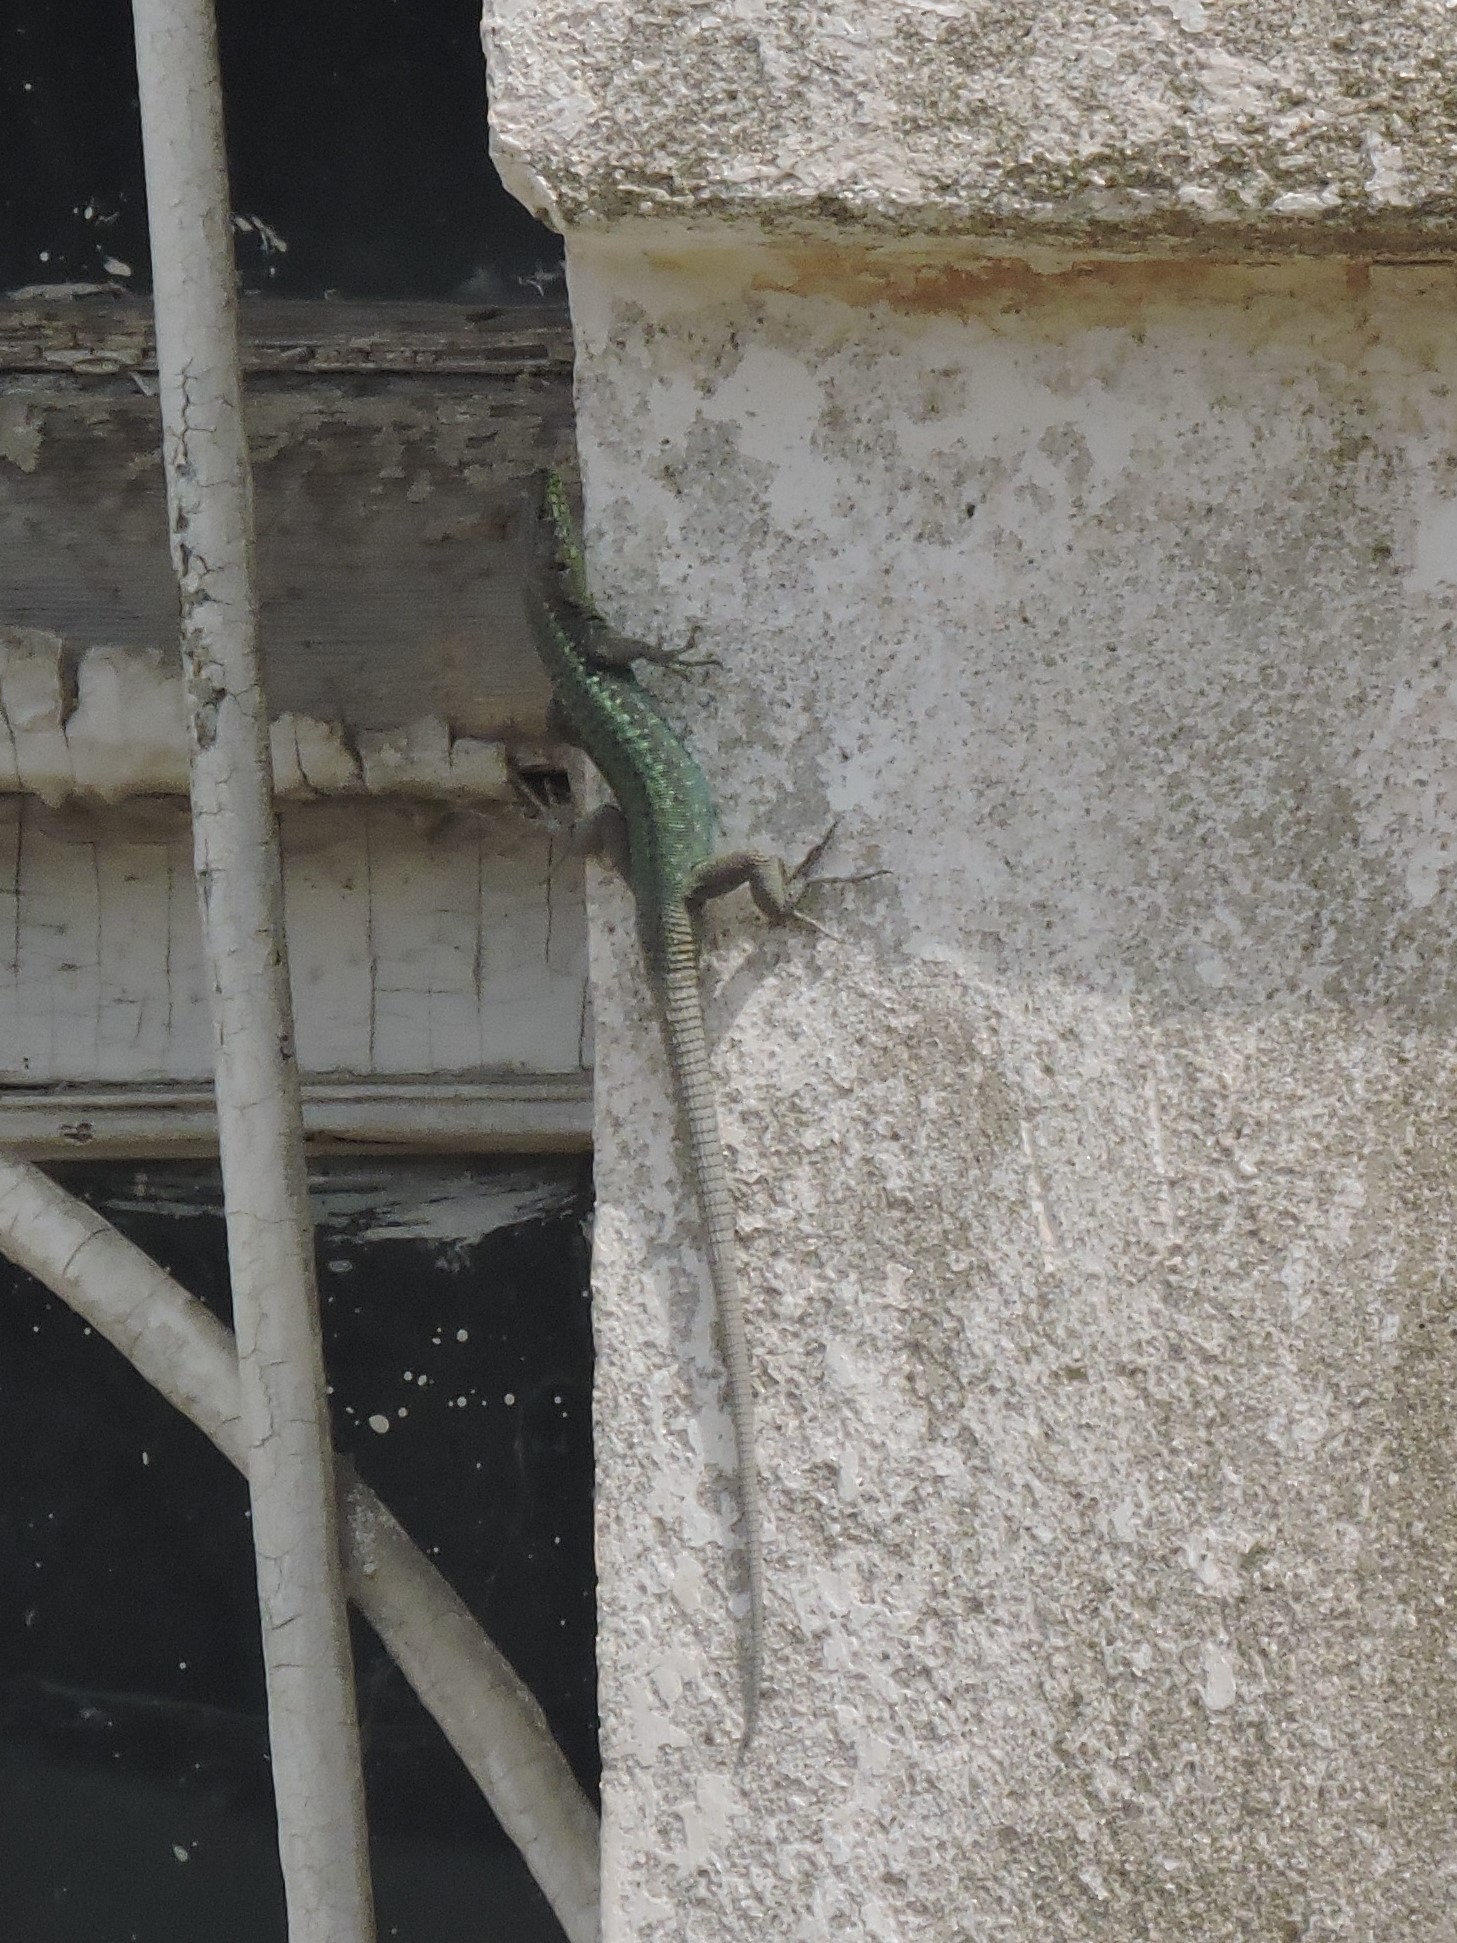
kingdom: Animalia
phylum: Chordata
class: Squamata
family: Lacertidae
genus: Darevskia
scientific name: Darevskia rudis
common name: Spiny-tailed lizard
